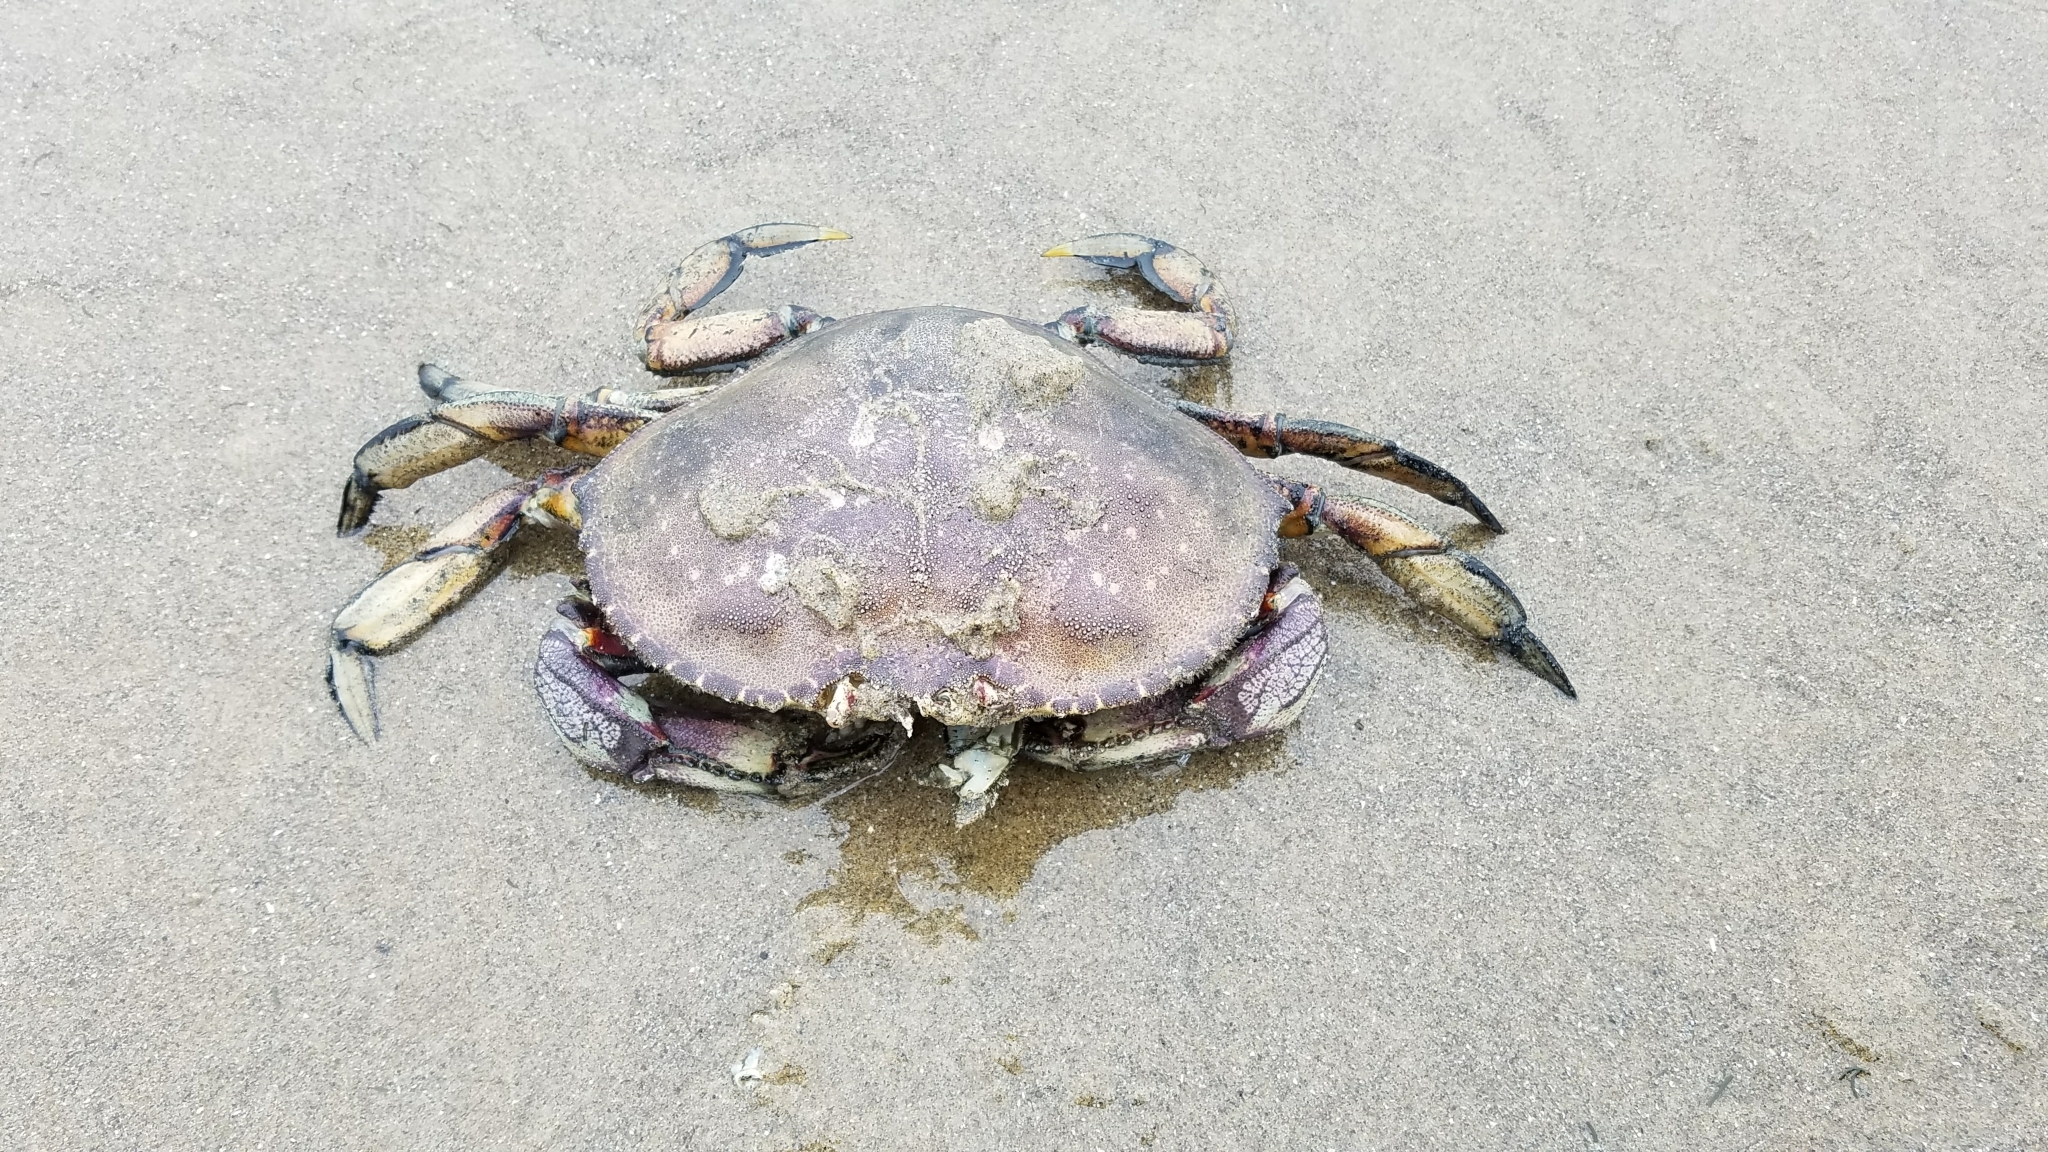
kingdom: Animalia
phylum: Arthropoda
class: Malacostraca
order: Decapoda
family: Cancridae
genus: Metacarcinus
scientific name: Metacarcinus magister
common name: Californian crab
